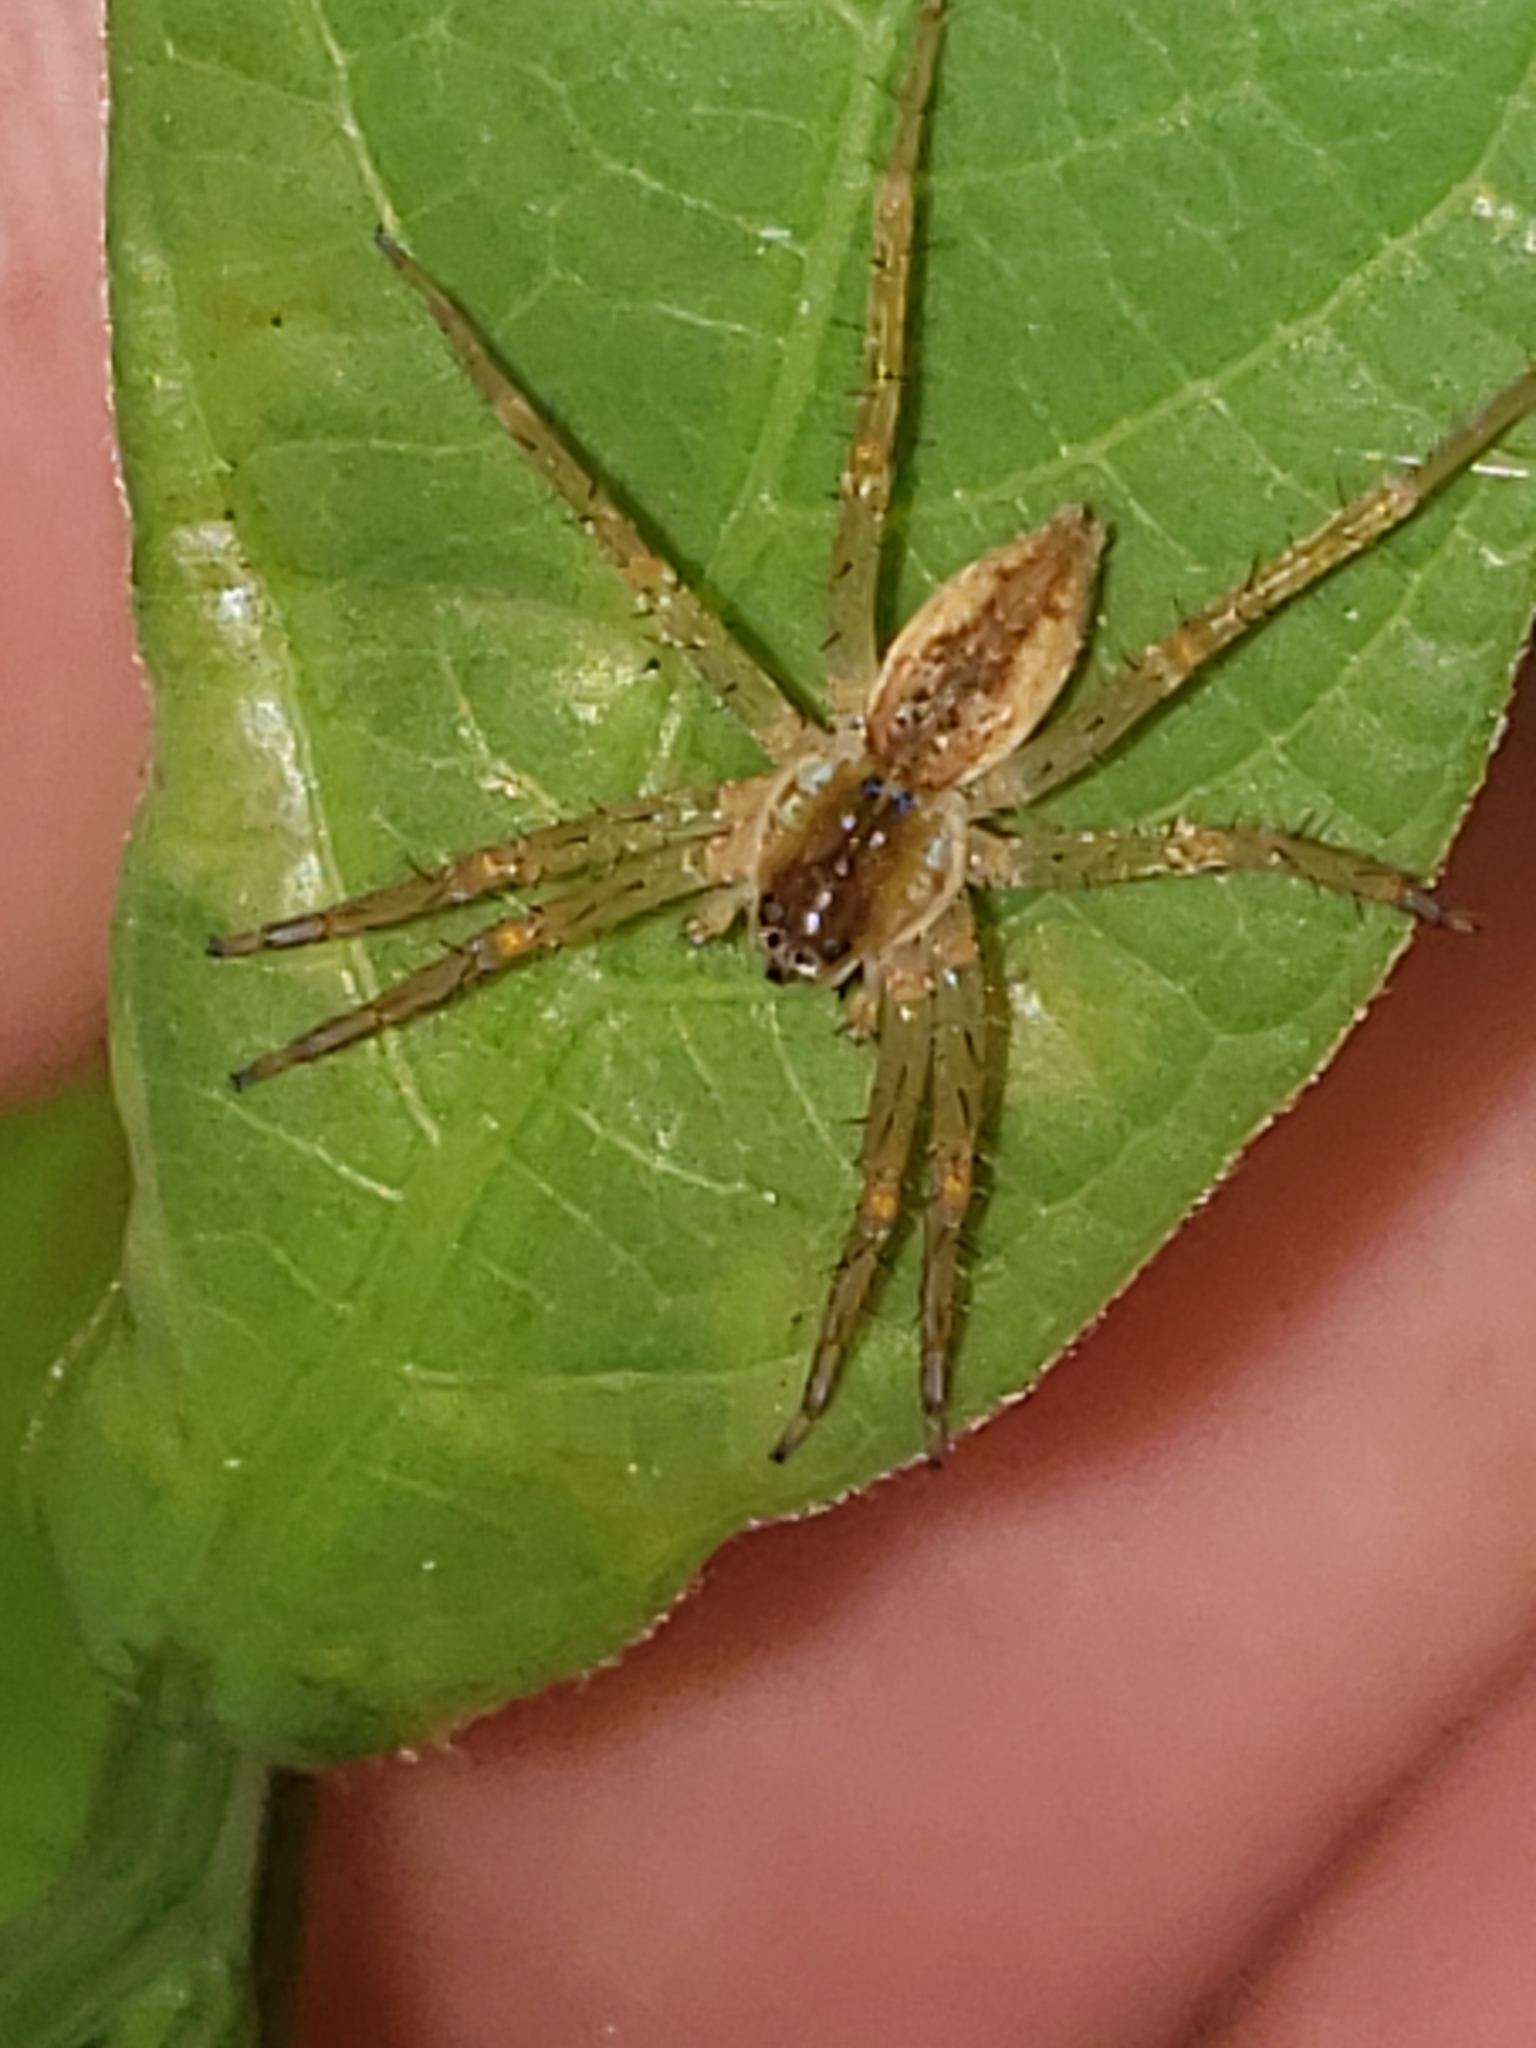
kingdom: Animalia
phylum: Arthropoda
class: Arachnida
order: Araneae
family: Pisauridae
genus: Pisaurina
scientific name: Pisaurina mira
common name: American nursery web spider
